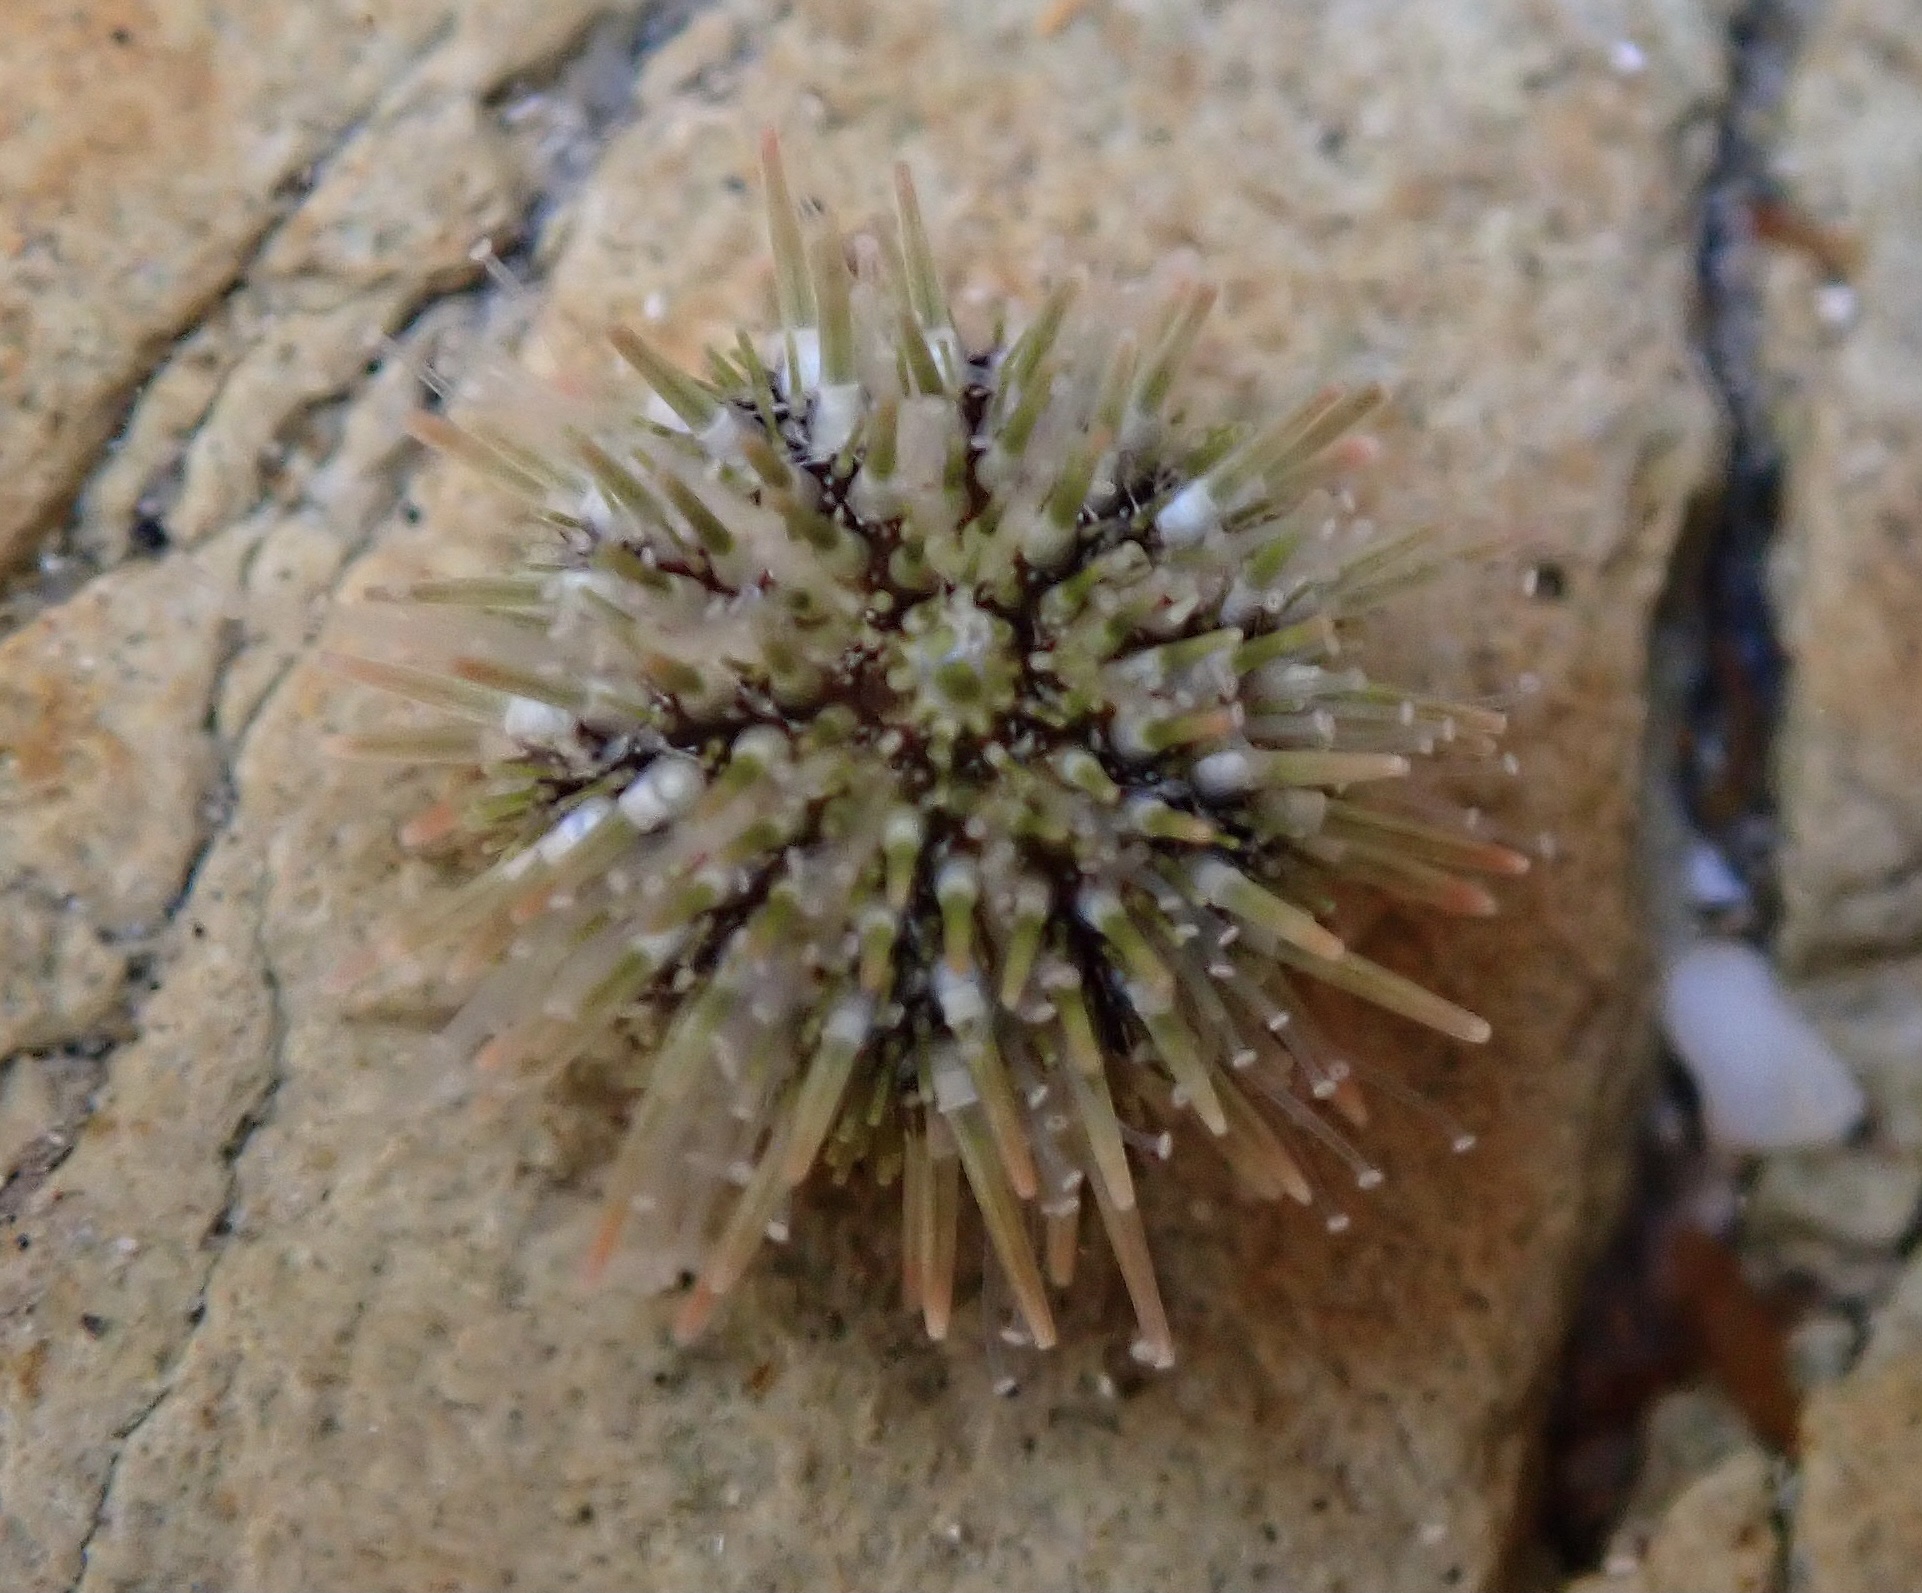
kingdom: Animalia
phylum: Echinodermata
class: Echinoidea
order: Camarodonta
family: Strongylocentrotidae
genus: Strongylocentrotus
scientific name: Strongylocentrotus purpuratus
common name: Purple sea urchin
